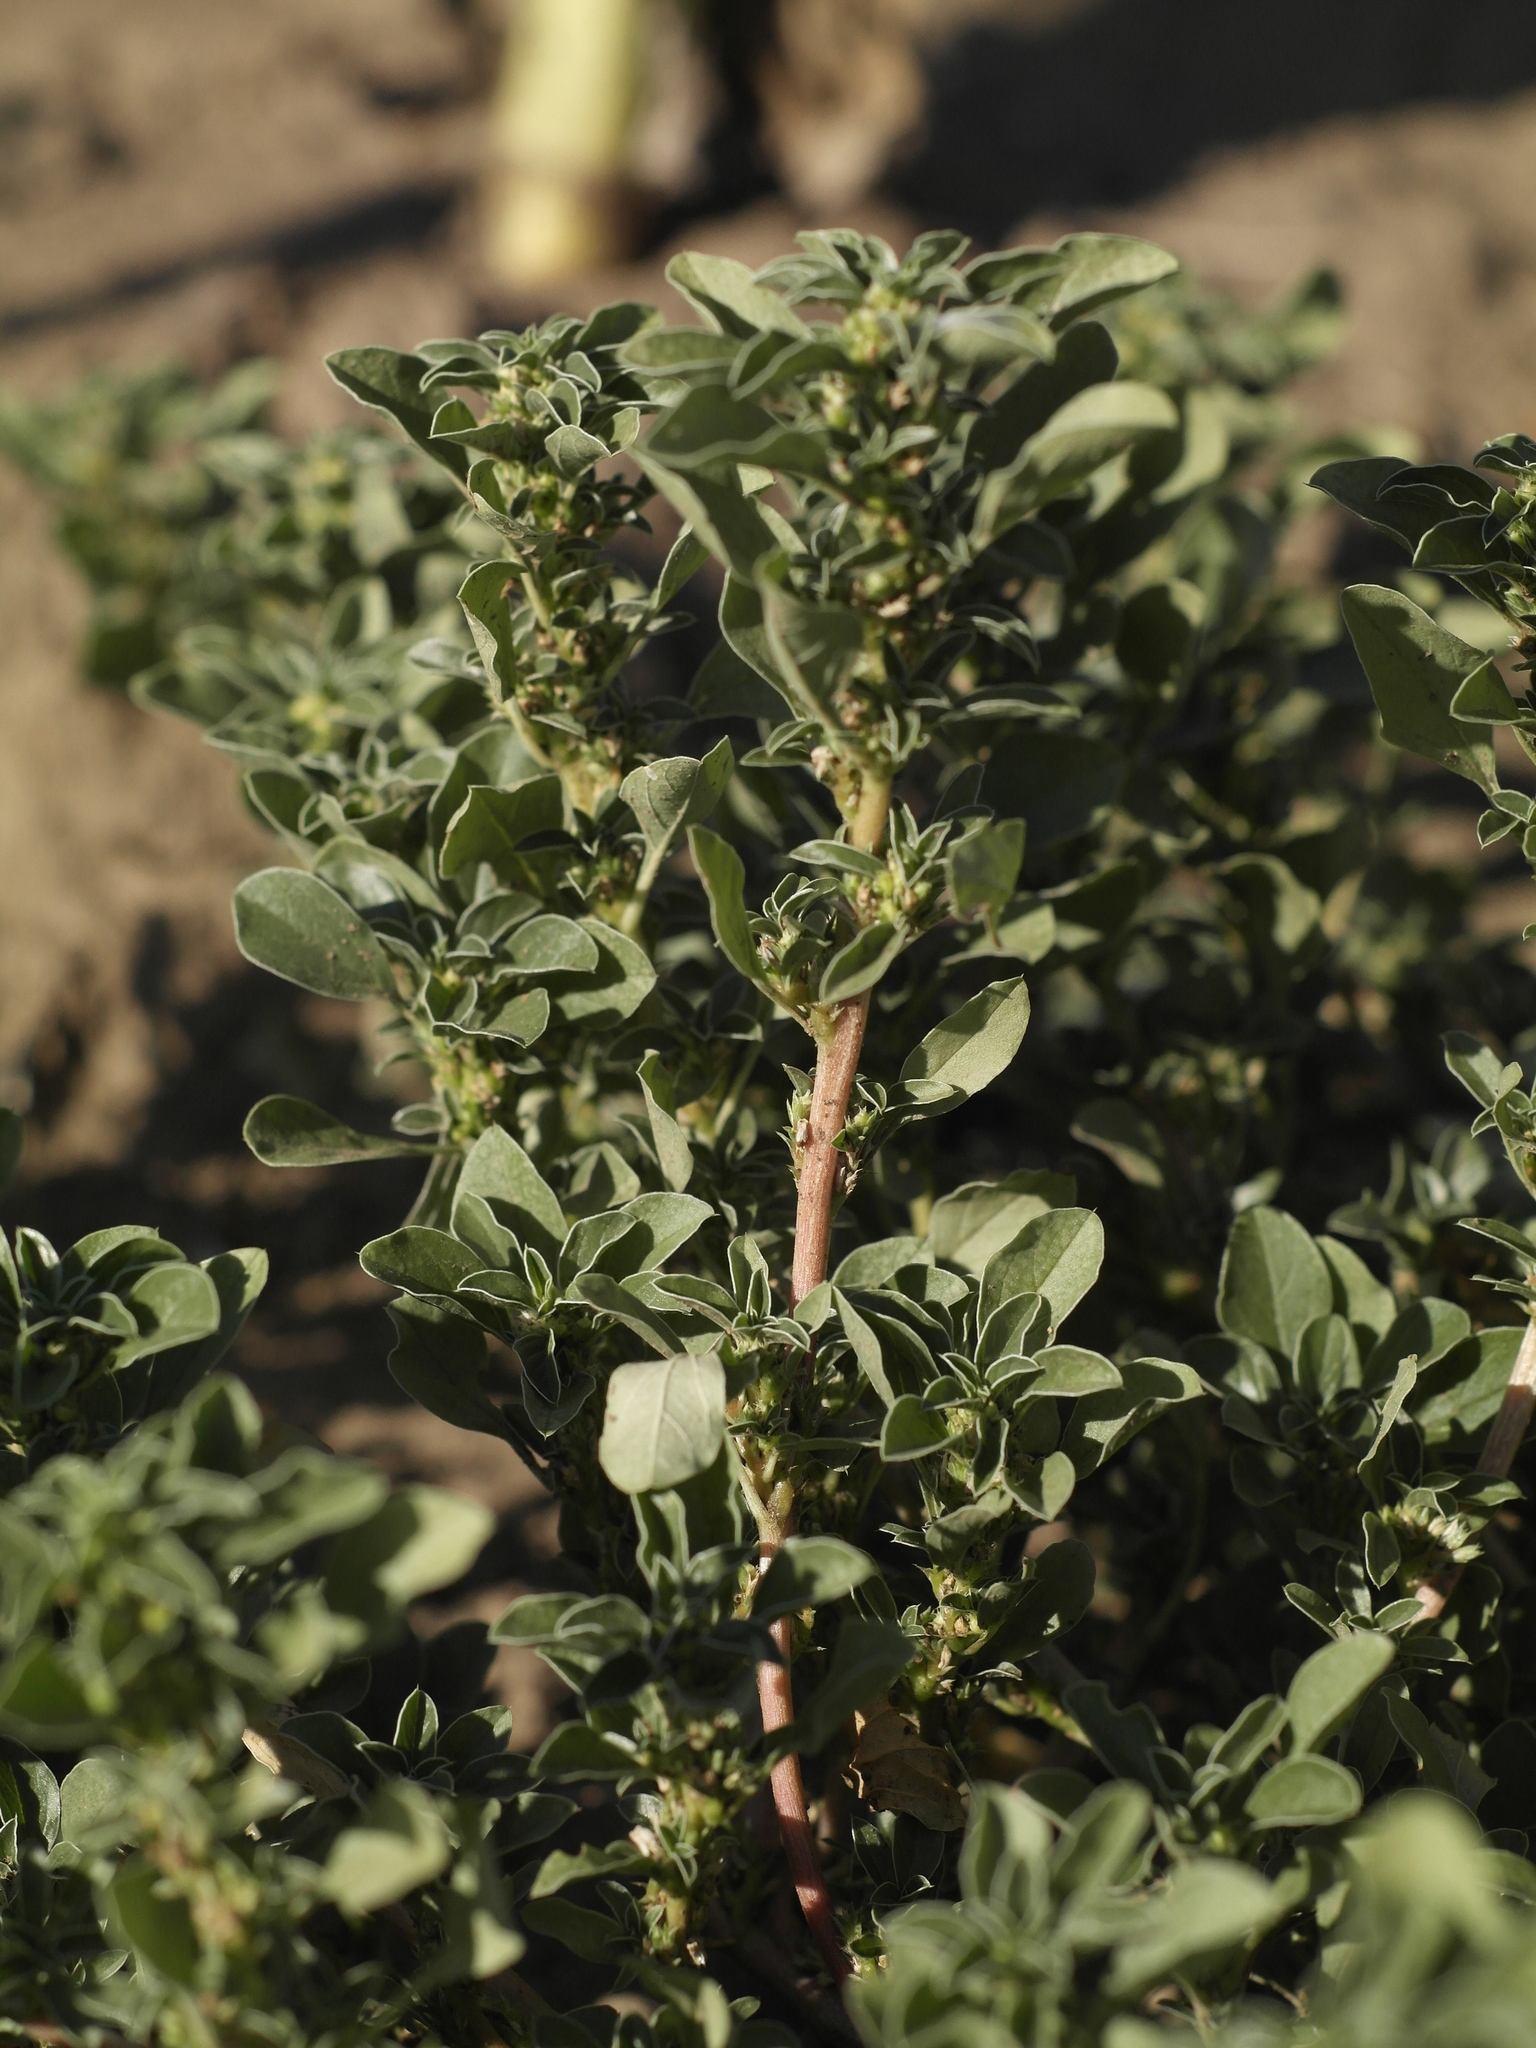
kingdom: Plantae
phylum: Tracheophyta
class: Magnoliopsida
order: Caryophyllales
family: Amaranthaceae
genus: Amaranthus
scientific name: Amaranthus blitoides
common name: Prostrate pigweed
